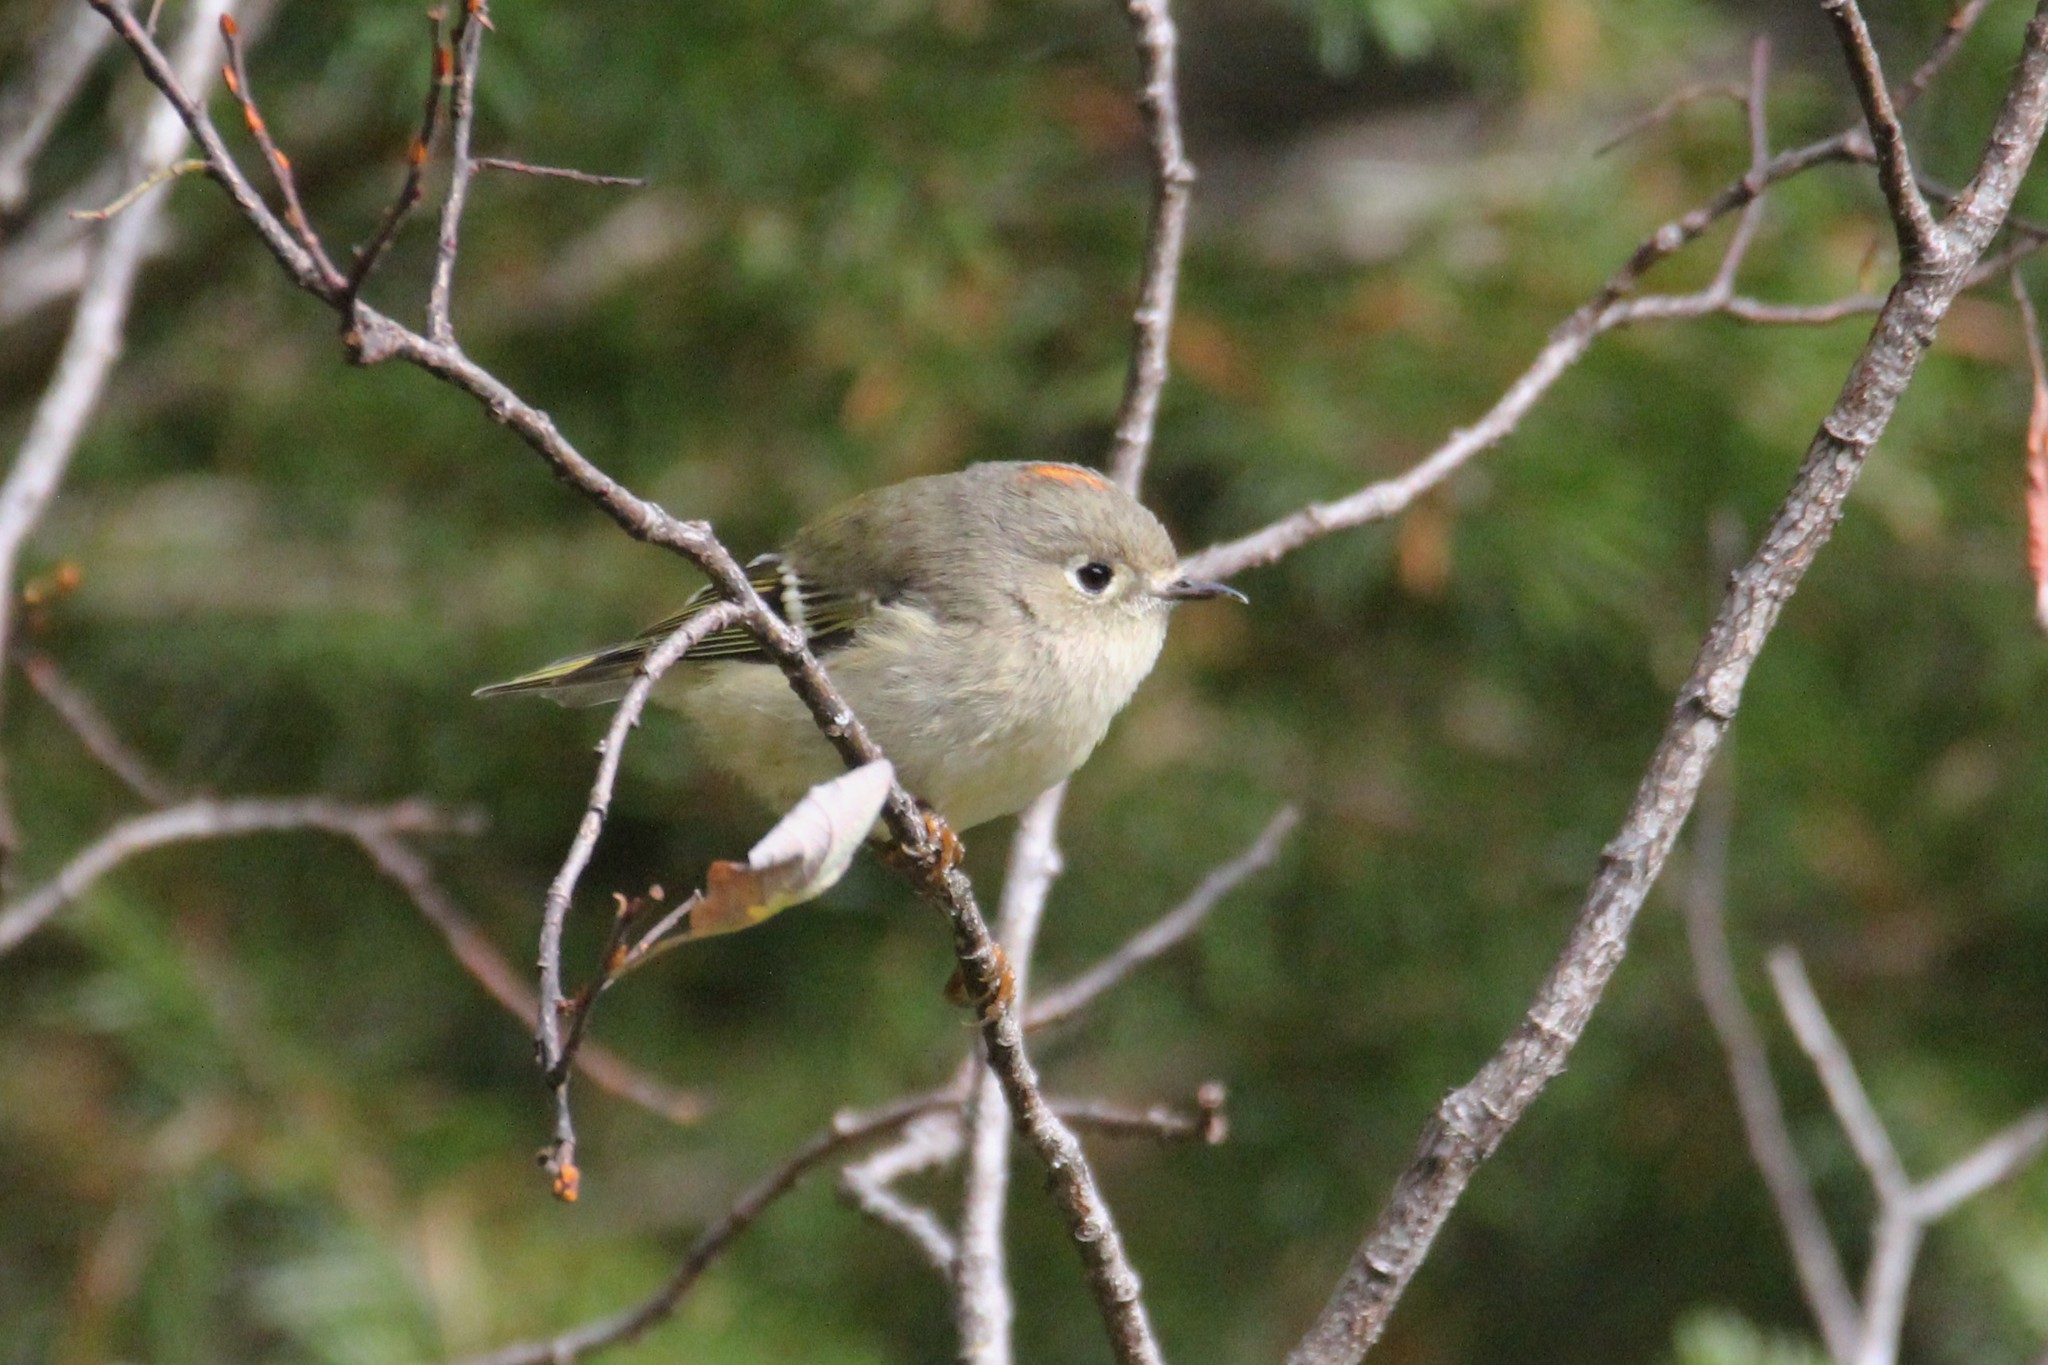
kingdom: Animalia
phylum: Chordata
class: Aves
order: Passeriformes
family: Regulidae
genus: Regulus
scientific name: Regulus calendula
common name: Ruby-crowned kinglet
